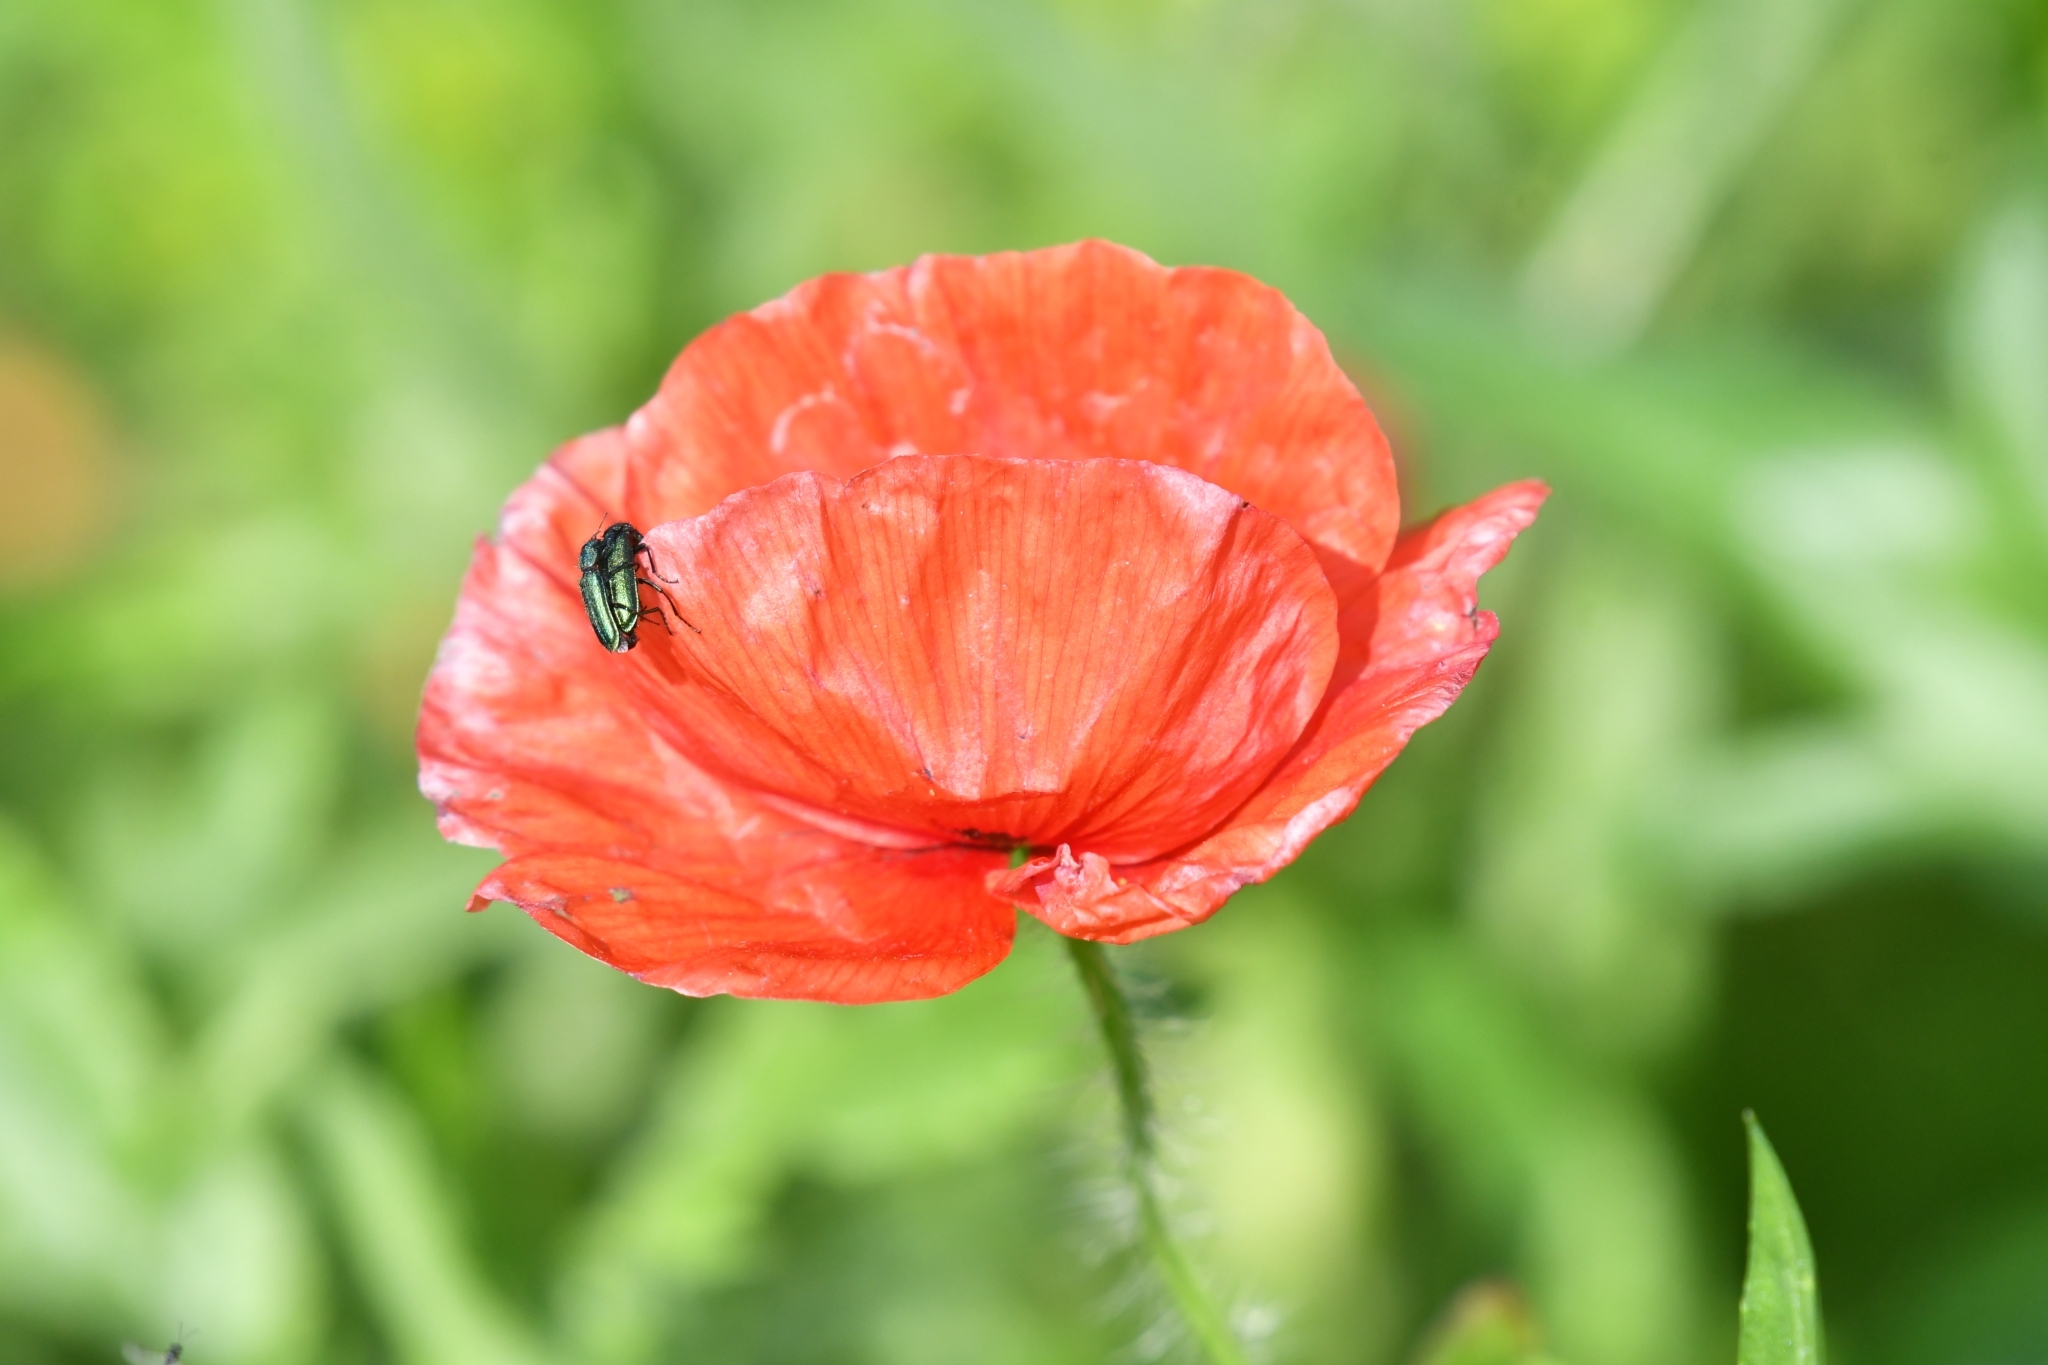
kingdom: Animalia
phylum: Arthropoda
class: Insecta
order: Coleoptera
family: Dasytidae
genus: Psilothrix
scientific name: Psilothrix viridicoerulea
